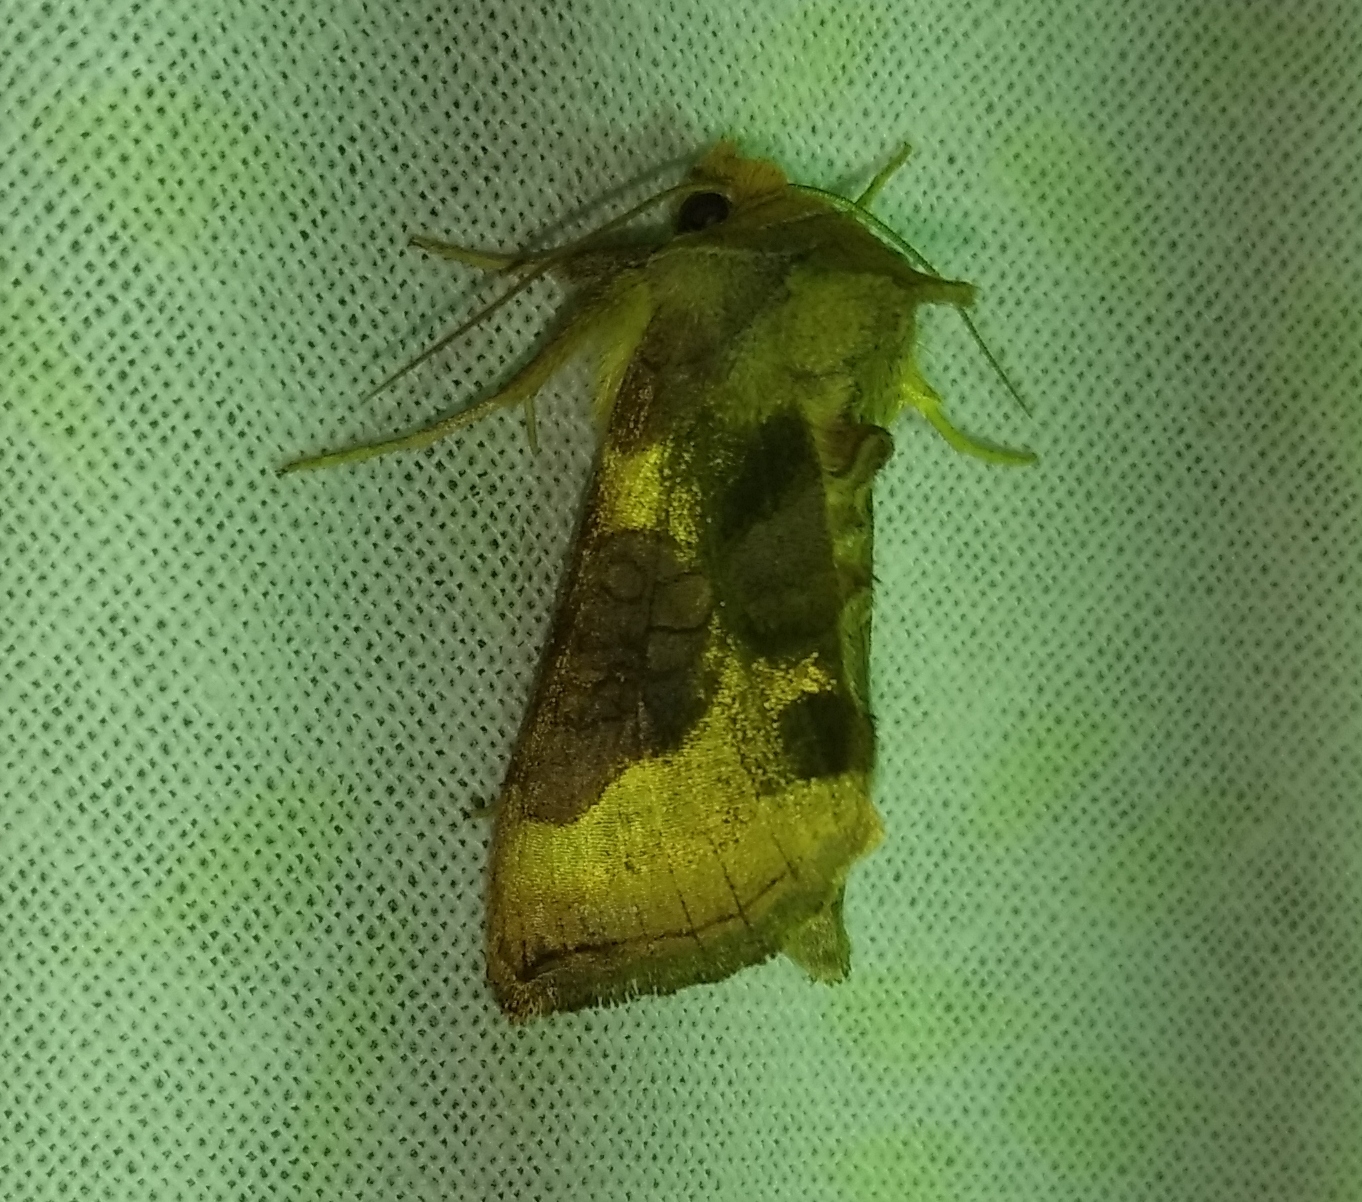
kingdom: Animalia
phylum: Arthropoda
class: Insecta
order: Lepidoptera
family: Noctuidae
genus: Diachrysia
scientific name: Diachrysia chrysitis
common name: Burnished brass
